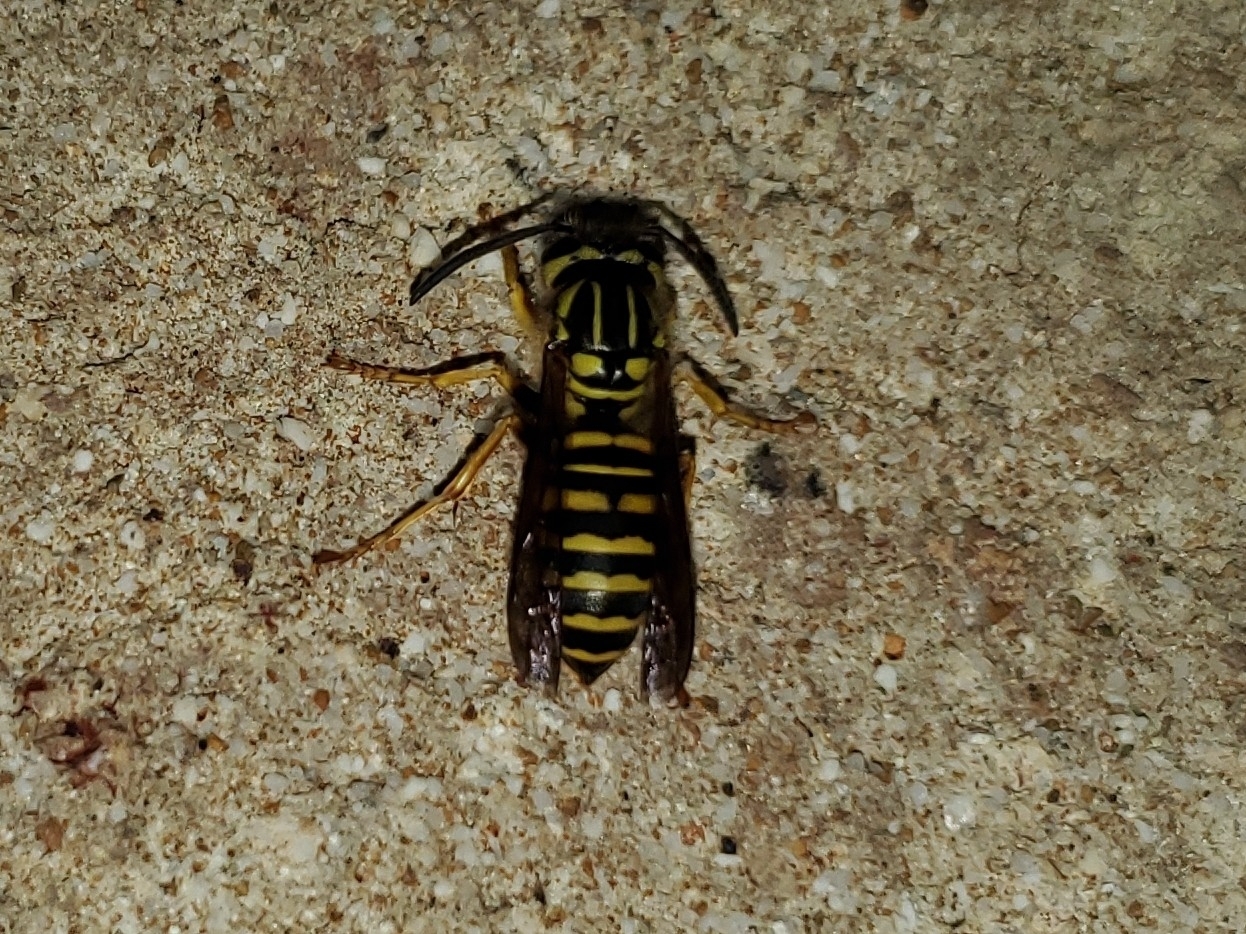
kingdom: Animalia
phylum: Arthropoda
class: Insecta
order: Hymenoptera
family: Vespidae
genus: Vespula
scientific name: Vespula squamosa
